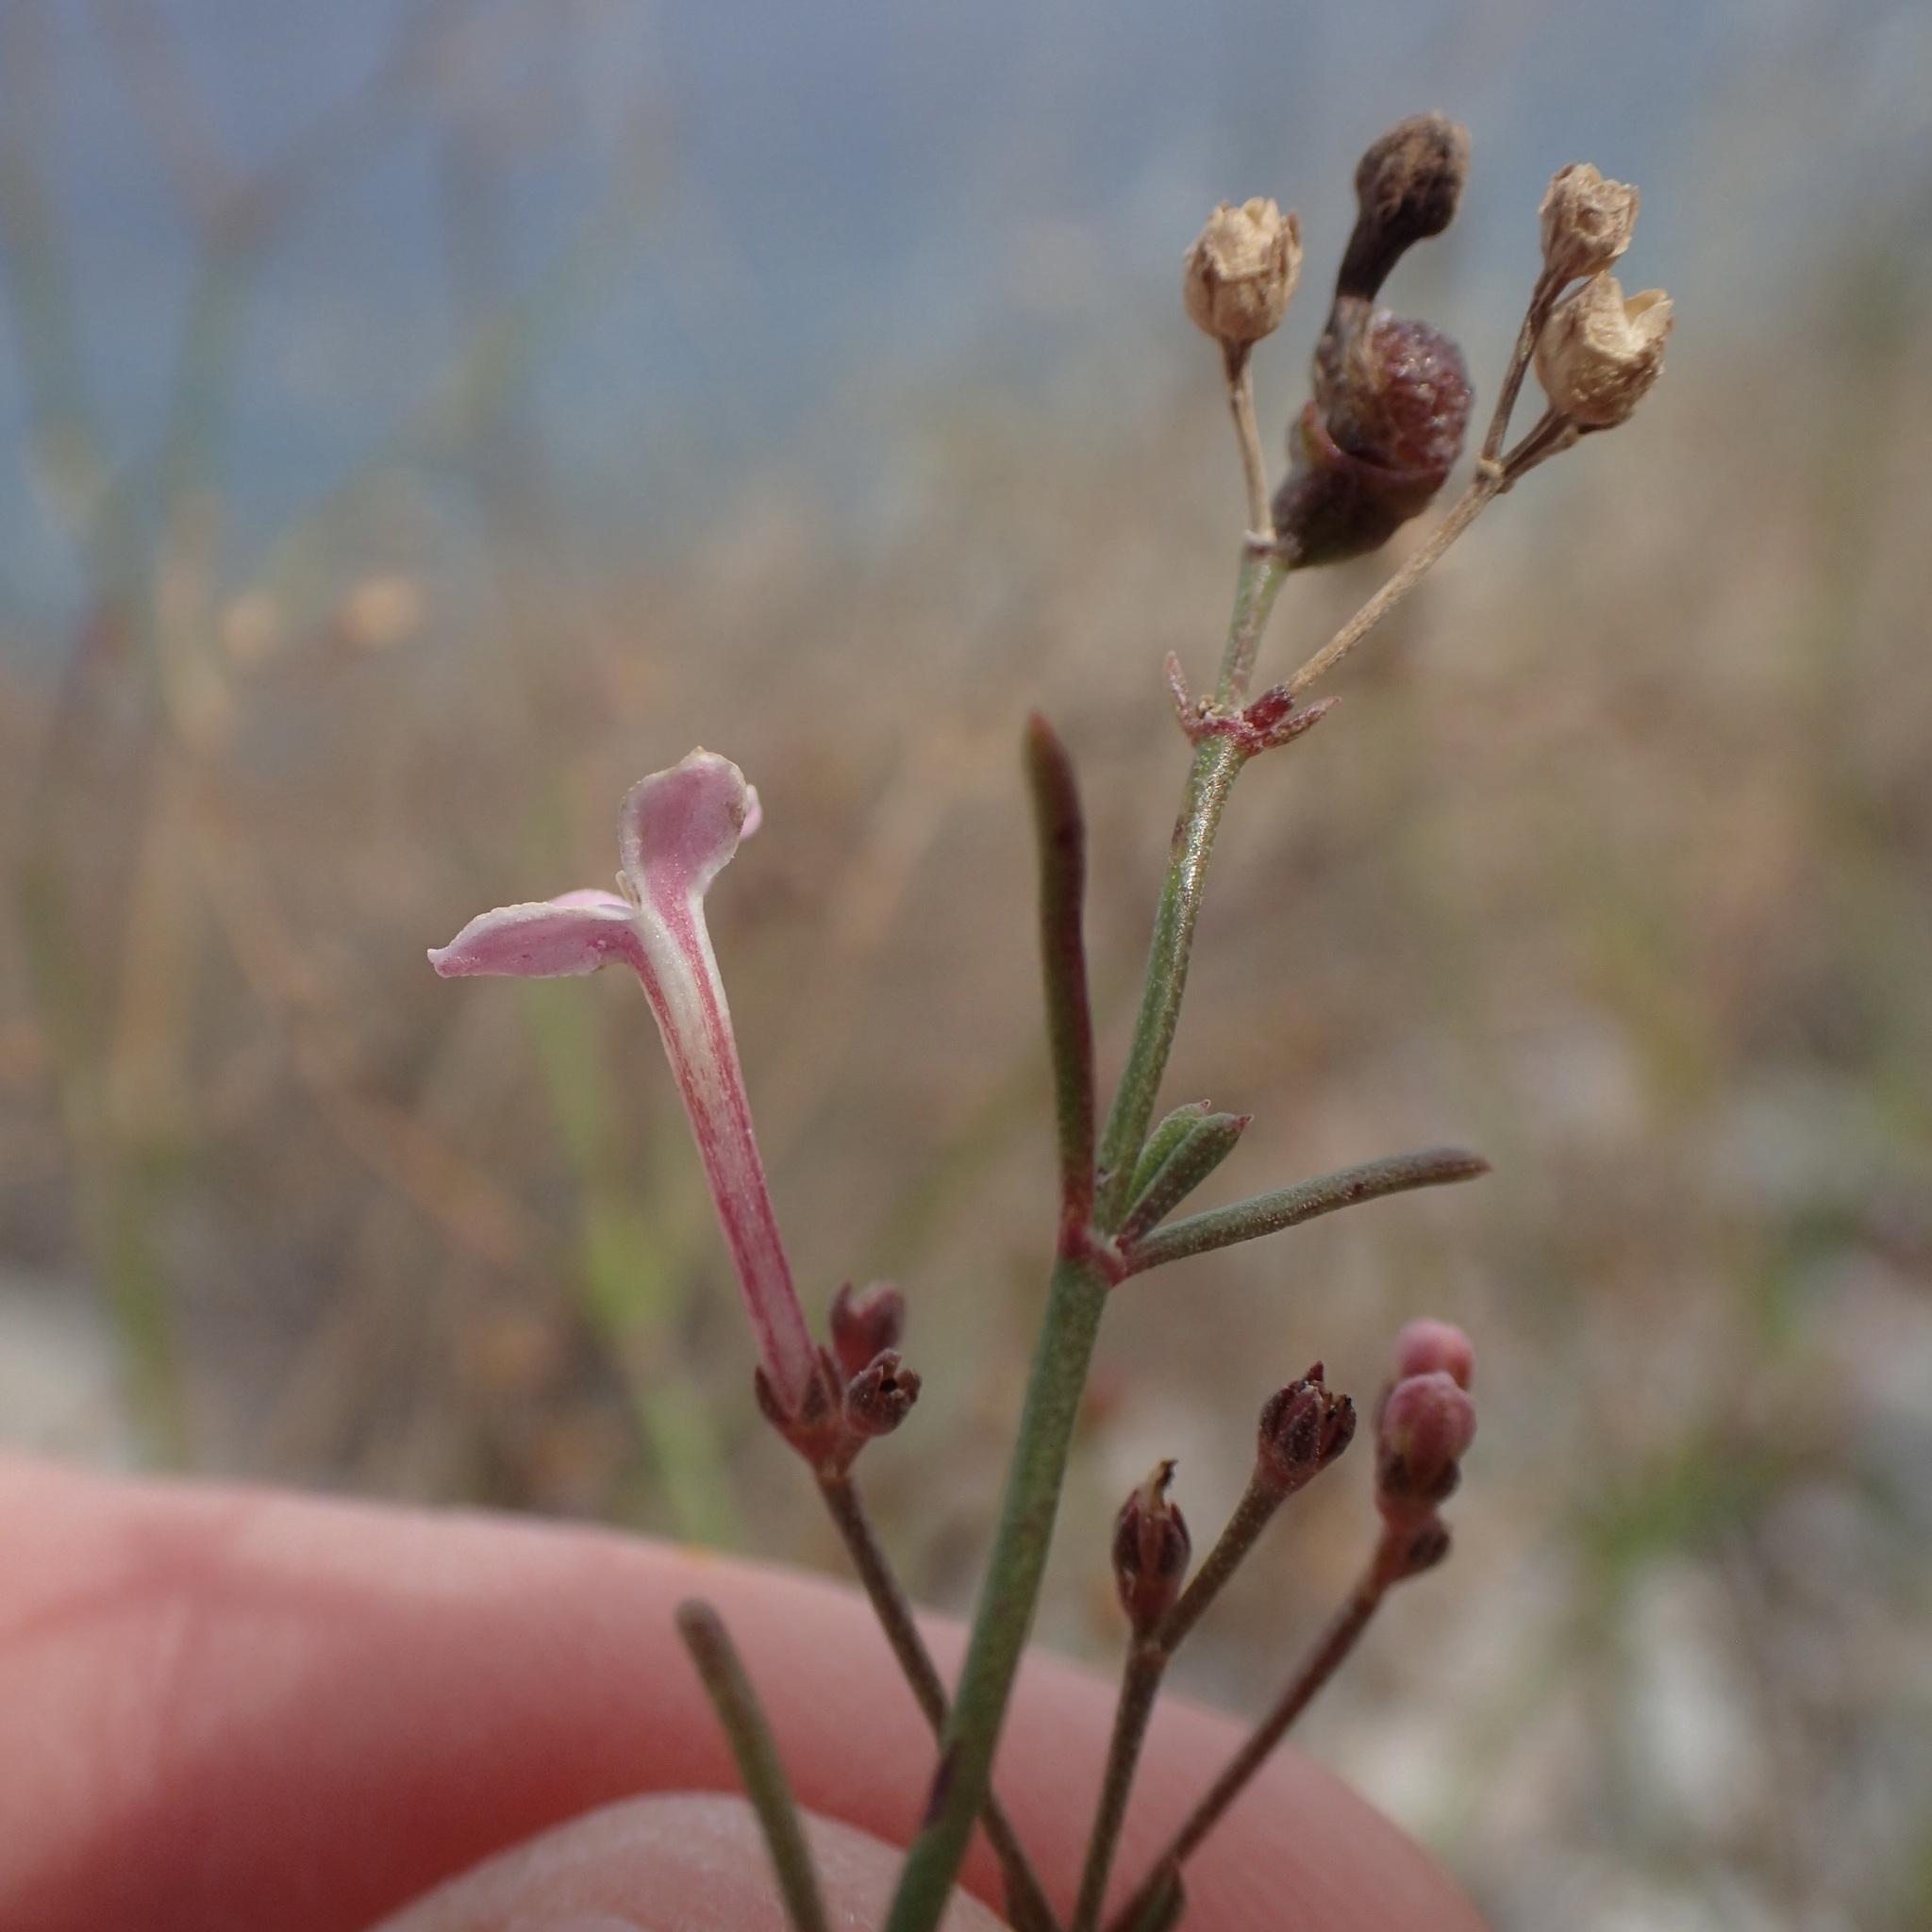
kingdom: Plantae
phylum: Tracheophyta
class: Magnoliopsida
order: Gentianales
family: Rubiaceae
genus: Stenotis
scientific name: Stenotis brevipes
